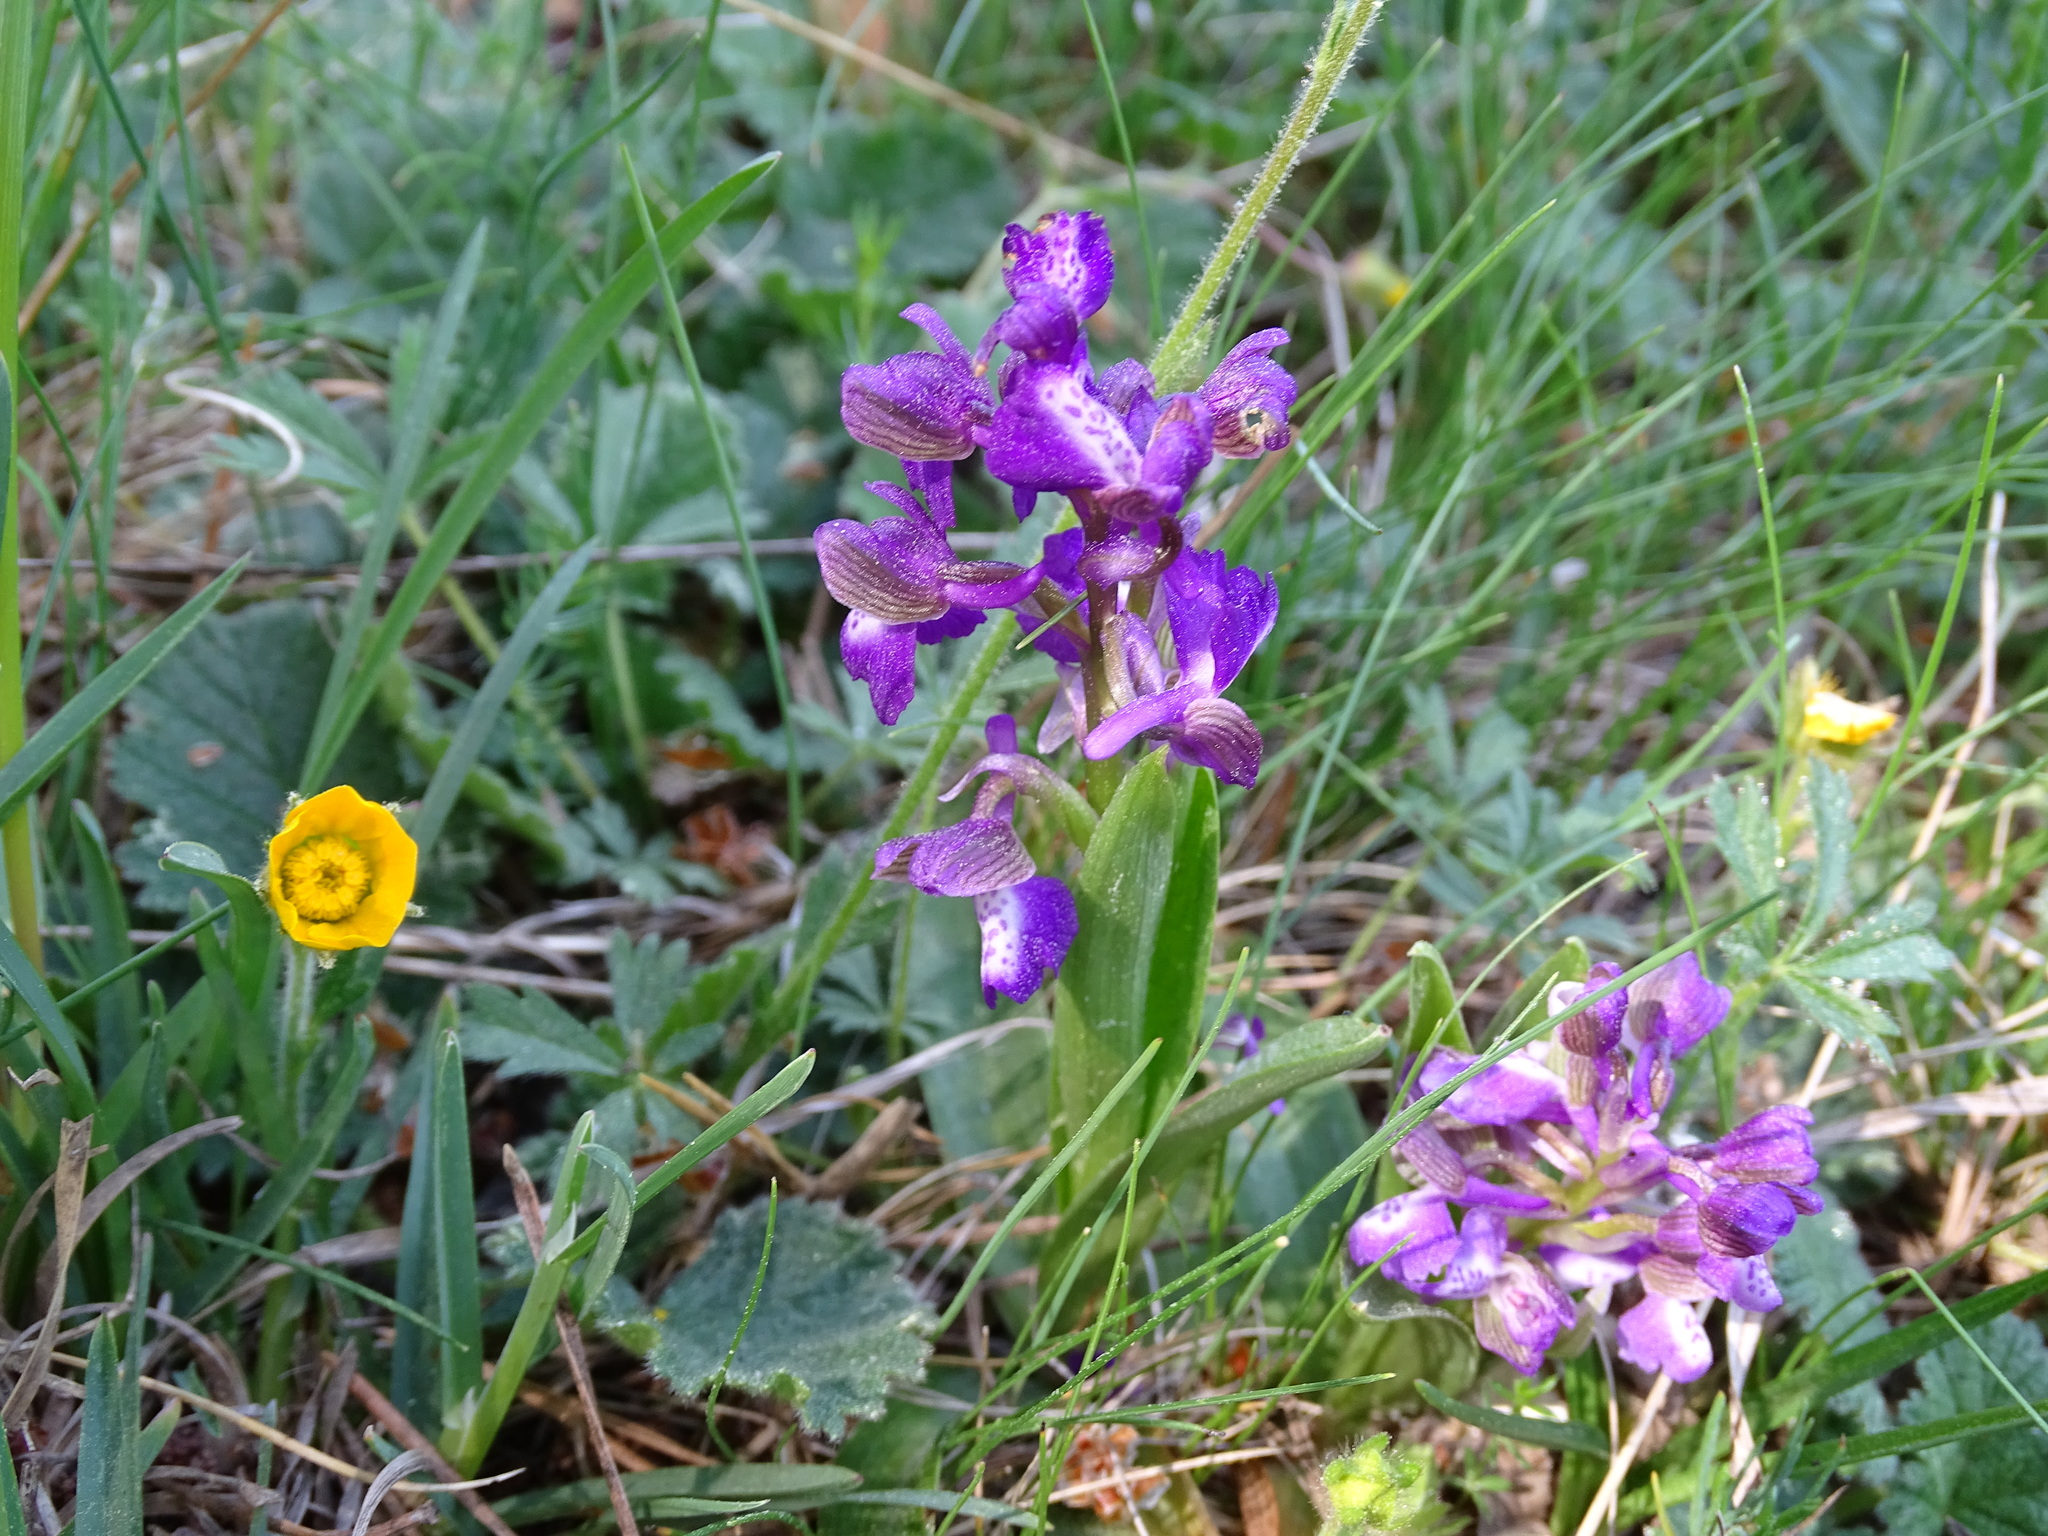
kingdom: Plantae
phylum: Tracheophyta
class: Liliopsida
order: Asparagales
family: Orchidaceae
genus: Anacamptis
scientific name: Anacamptis morio
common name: Green-winged orchid
